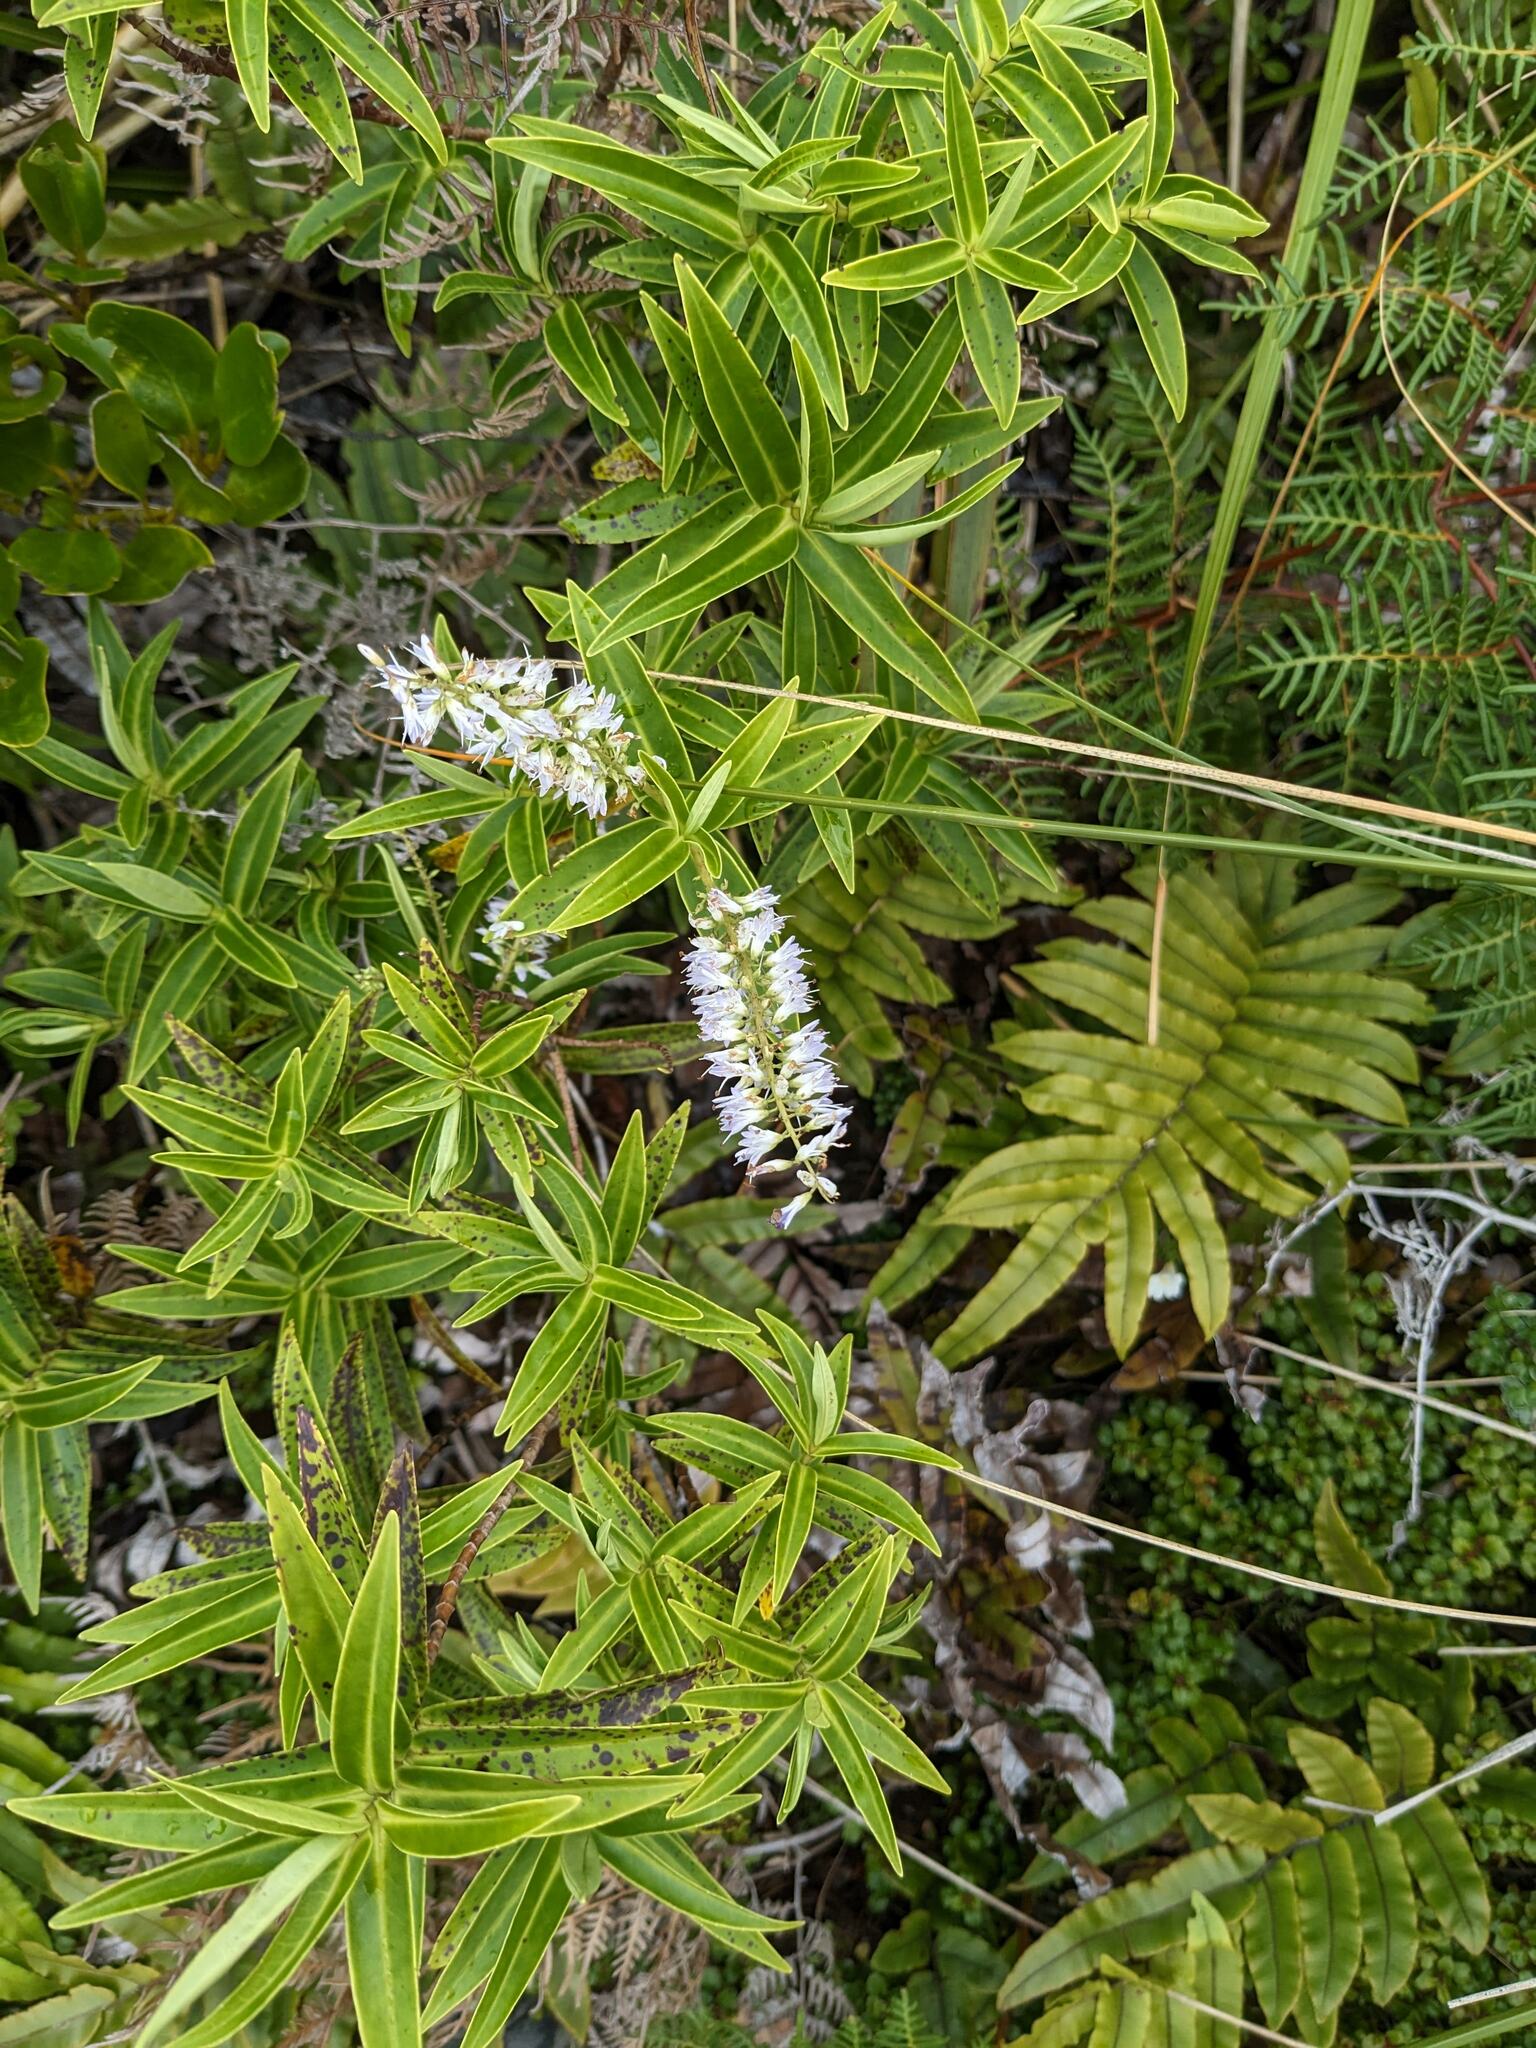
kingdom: Plantae
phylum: Tracheophyta
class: Magnoliopsida
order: Lamiales
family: Plantaginaceae
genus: Veronica
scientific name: Veronica stricta
